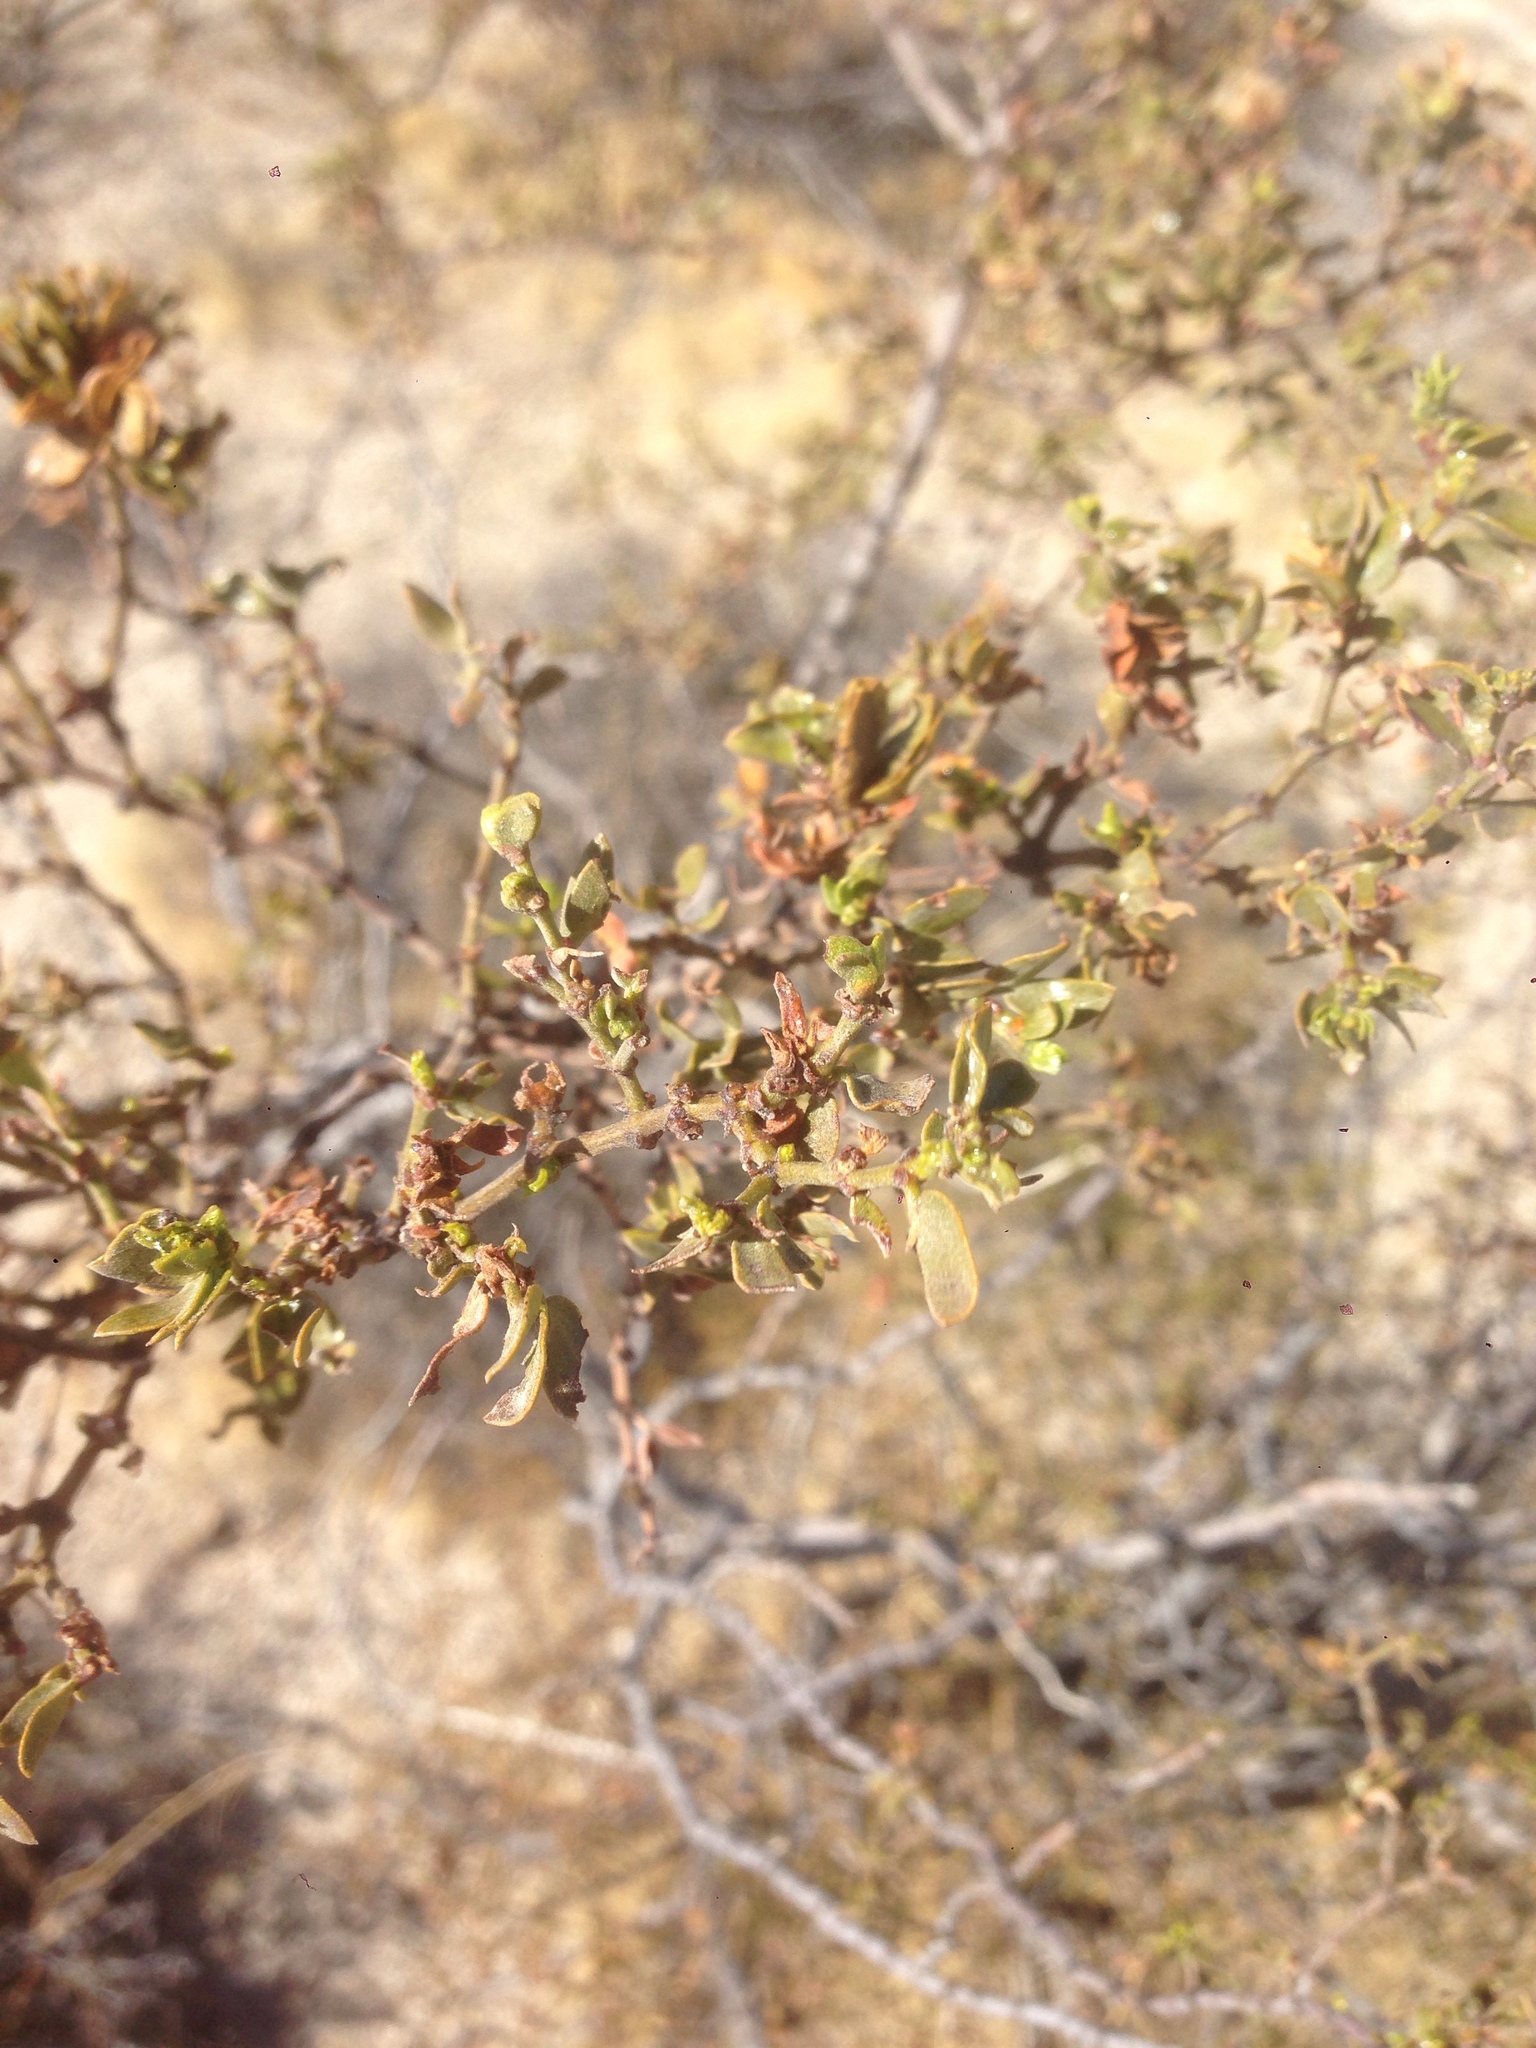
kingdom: Plantae
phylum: Tracheophyta
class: Magnoliopsida
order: Zygophyllales
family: Zygophyllaceae
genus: Larrea
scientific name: Larrea tridentata
